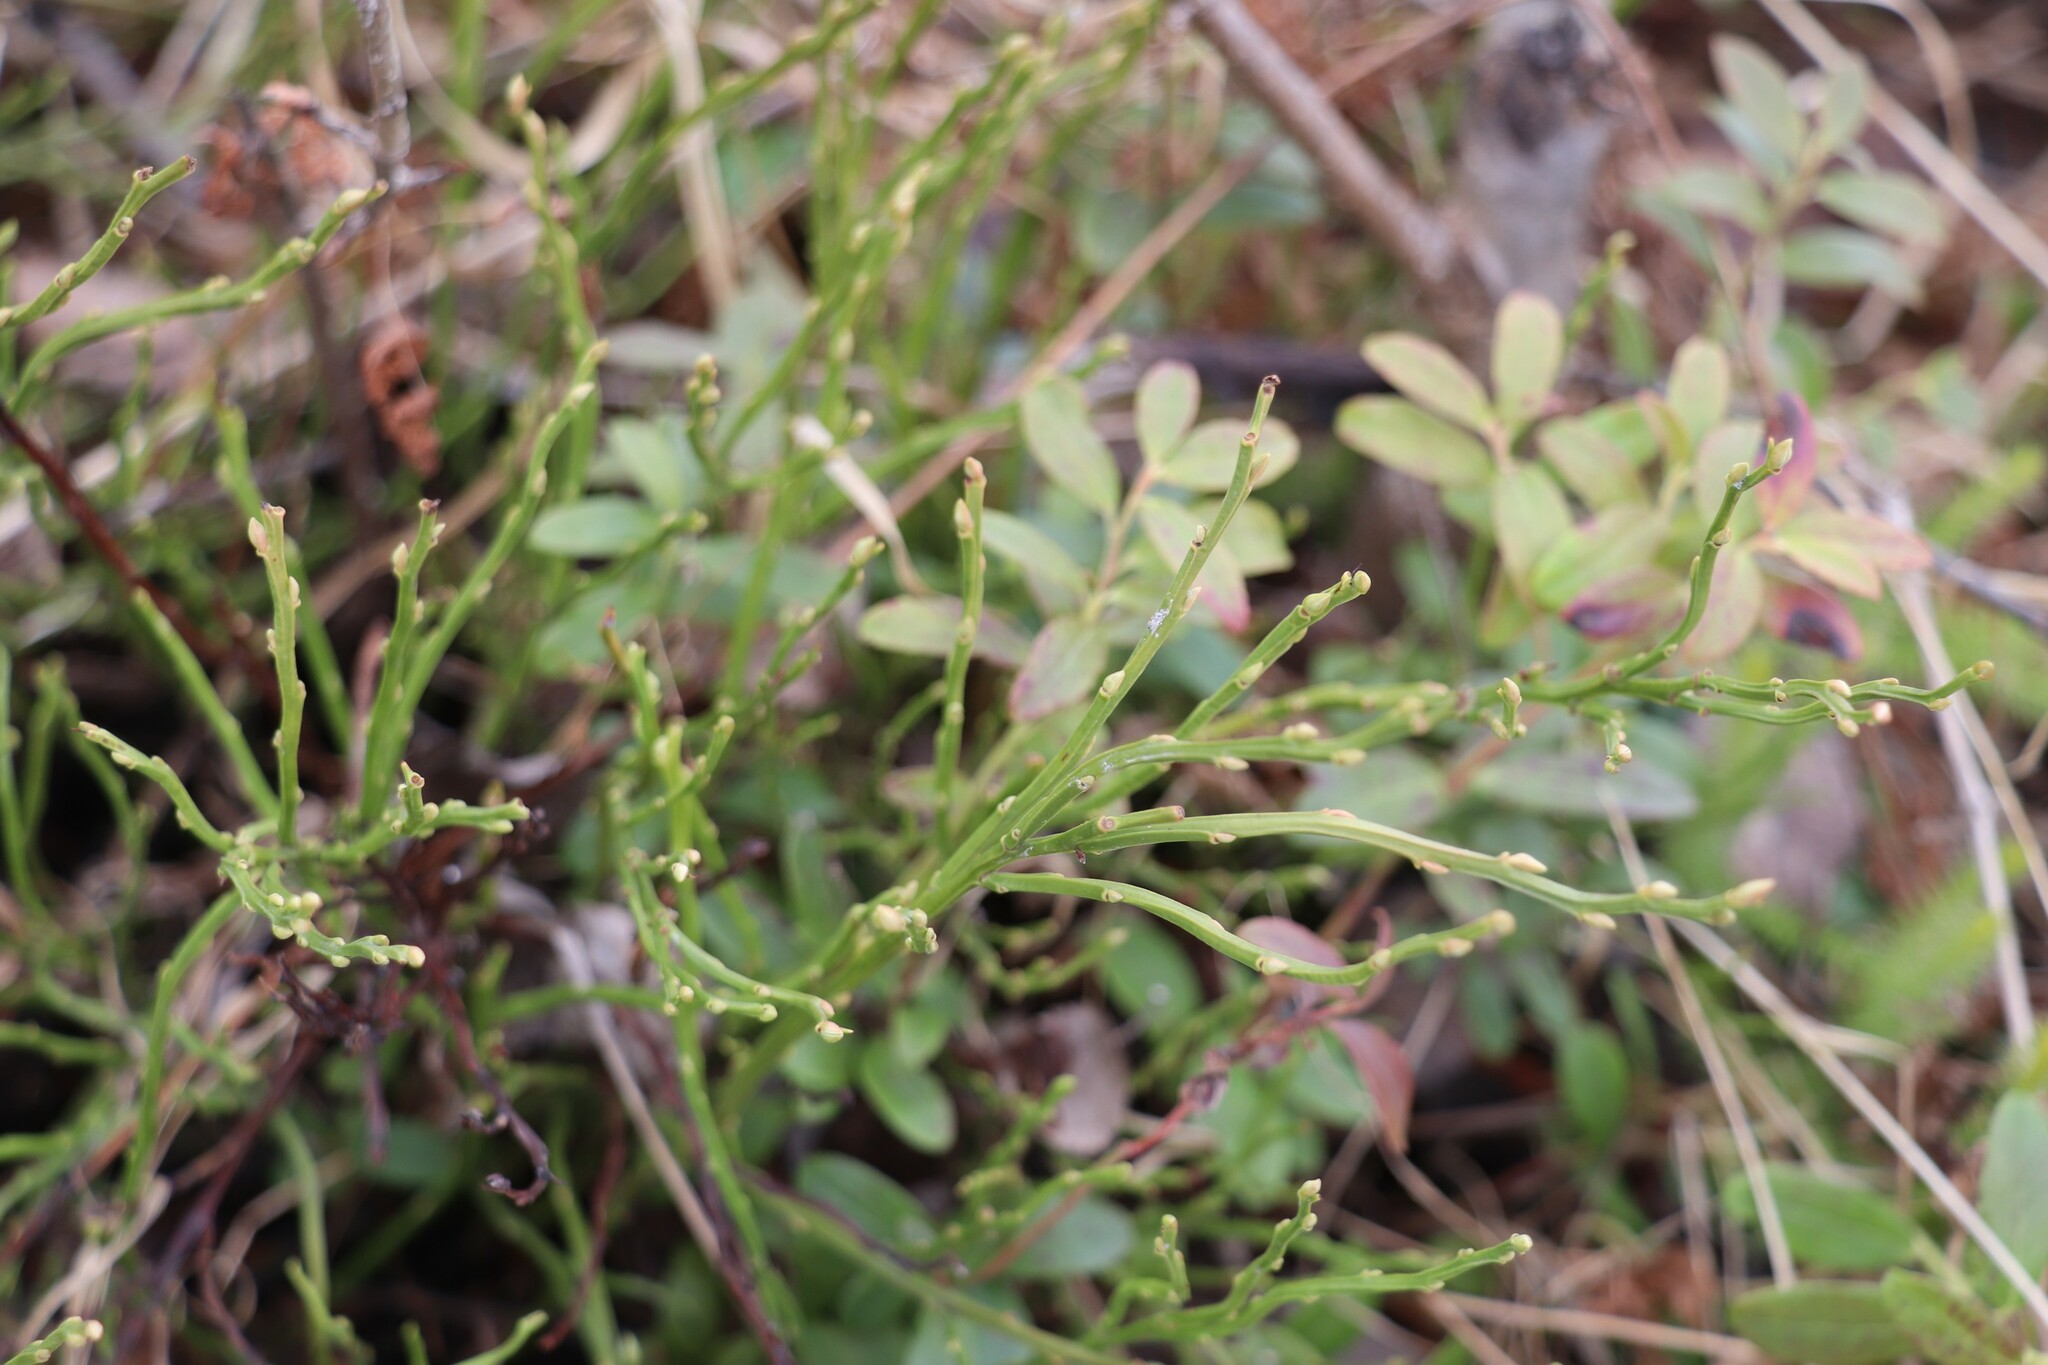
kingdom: Plantae
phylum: Tracheophyta
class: Magnoliopsida
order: Ericales
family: Ericaceae
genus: Vaccinium
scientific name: Vaccinium myrtillus
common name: Bilberry
